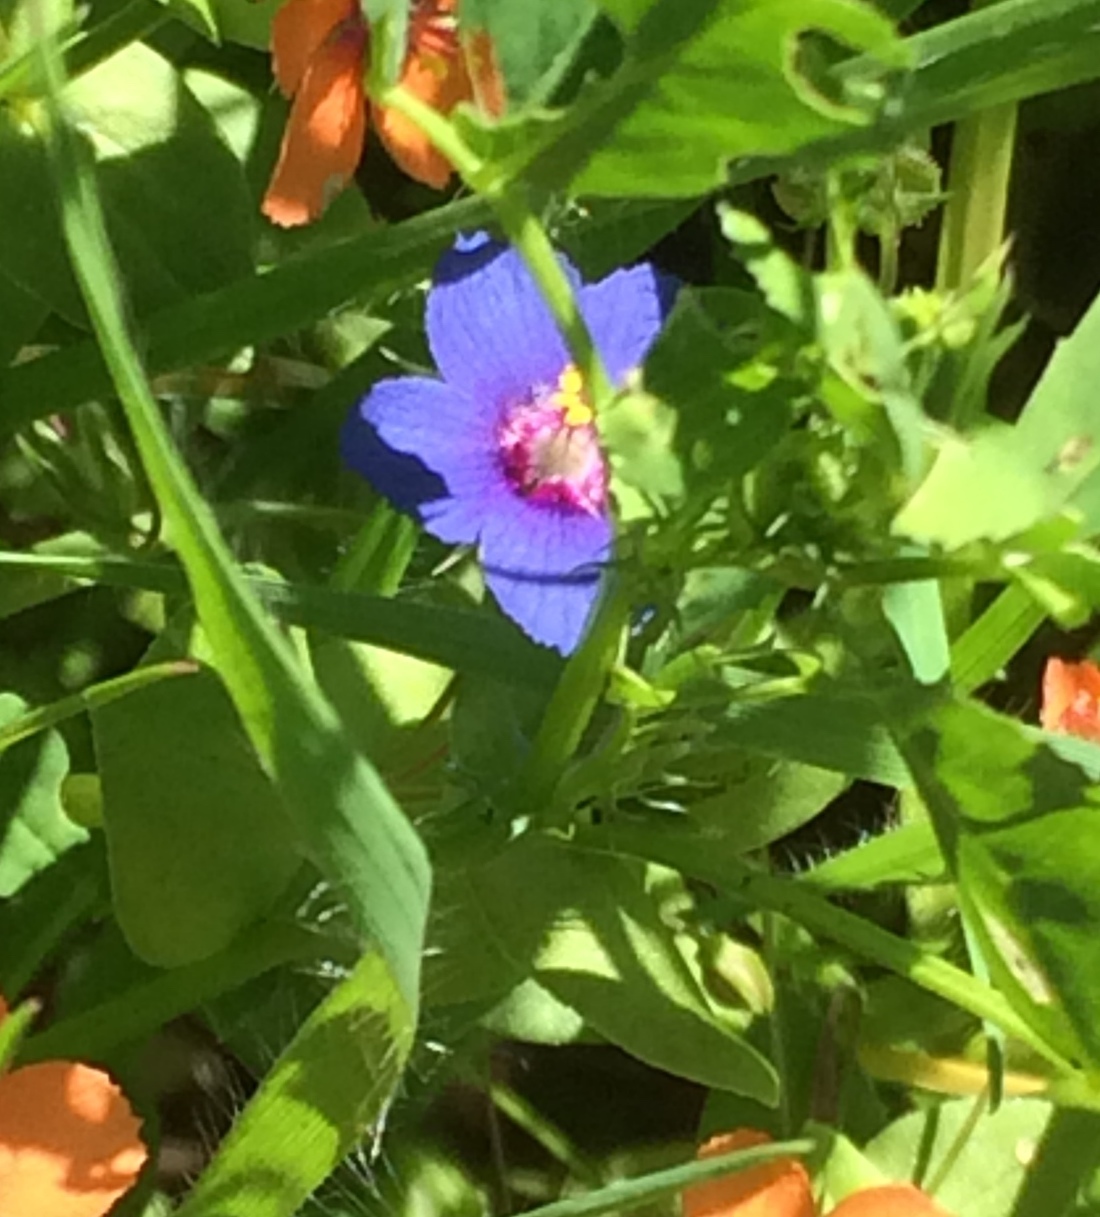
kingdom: Plantae
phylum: Tracheophyta
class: Magnoliopsida
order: Ericales
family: Primulaceae
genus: Lysimachia
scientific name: Lysimachia loeflingii
